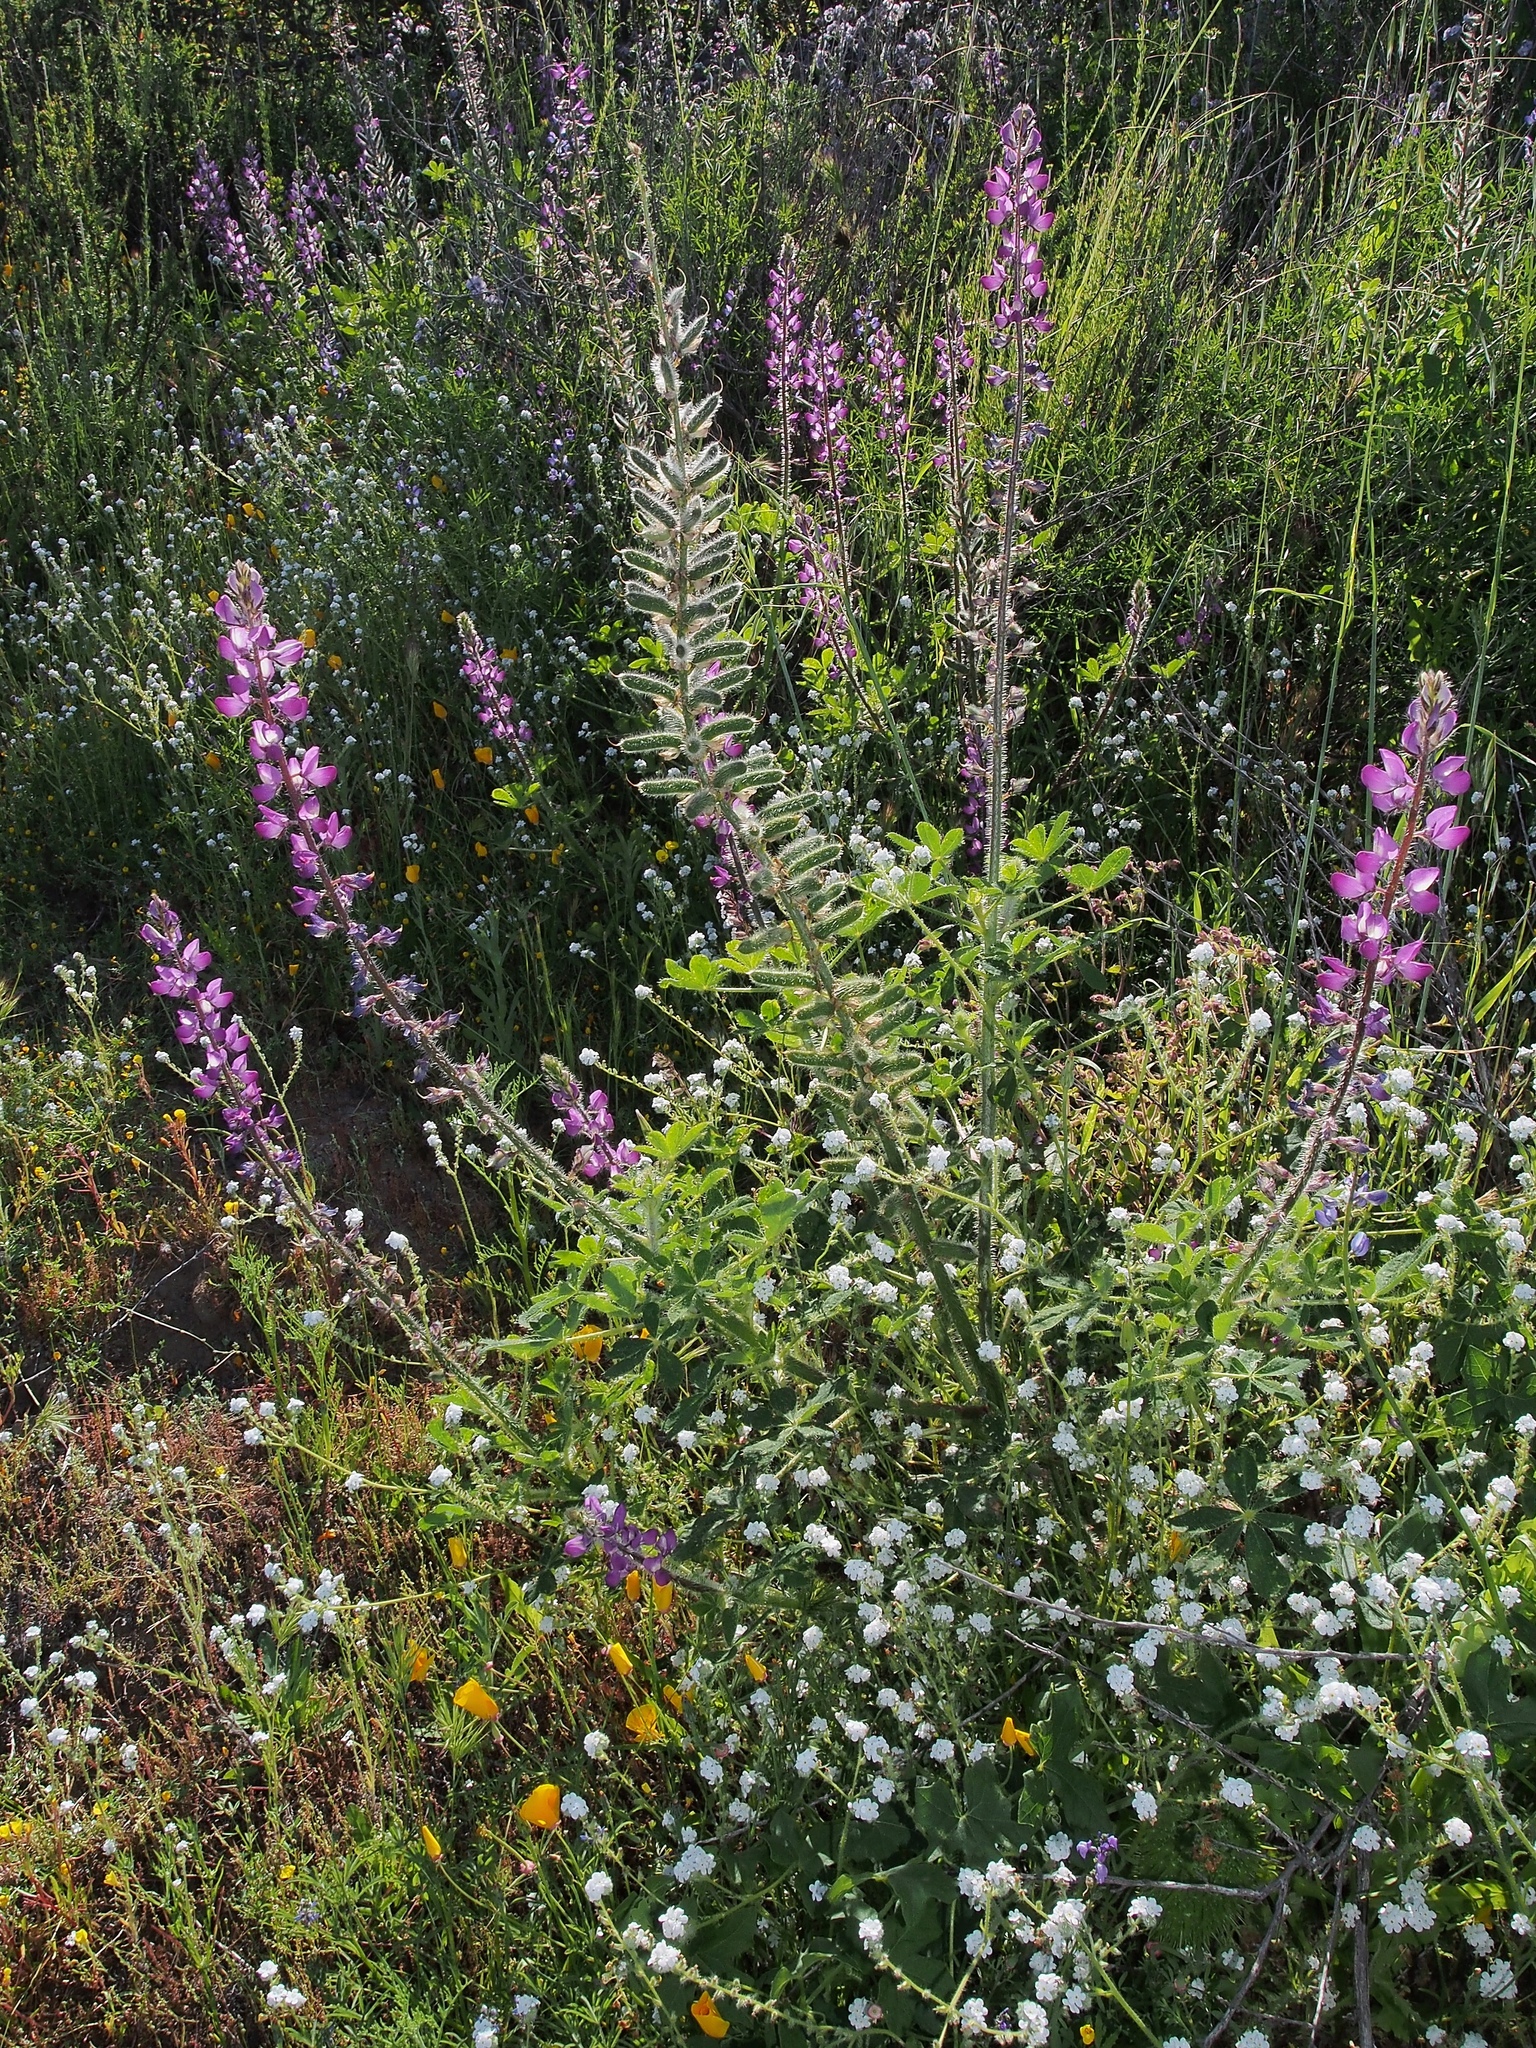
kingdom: Plantae
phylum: Tracheophyta
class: Magnoliopsida
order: Fabales
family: Fabaceae
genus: Lupinus
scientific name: Lupinus hirsutissimus
